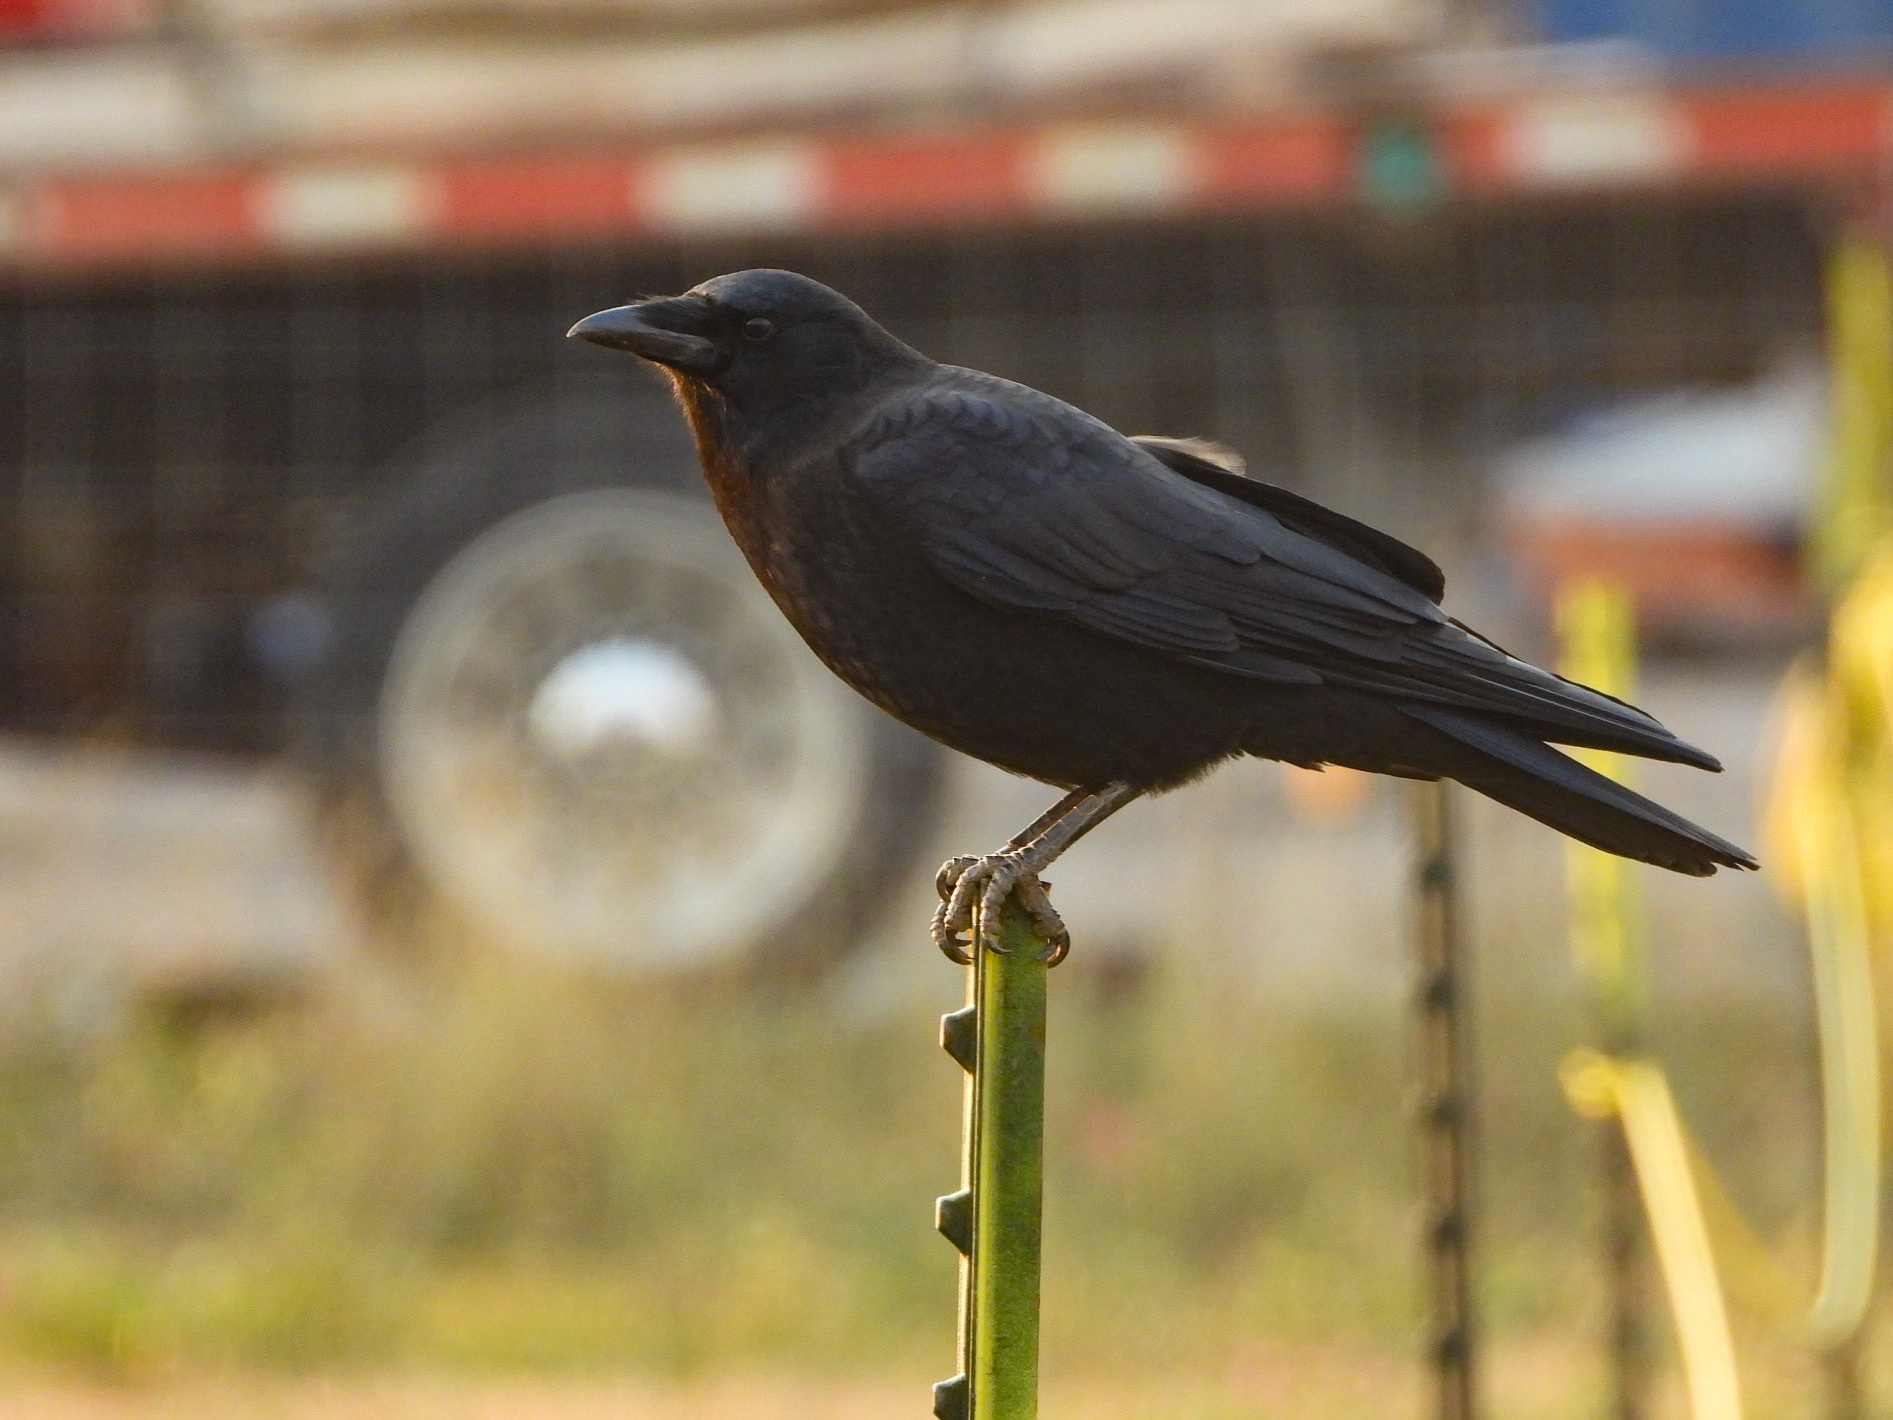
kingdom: Animalia
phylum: Chordata
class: Aves
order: Passeriformes
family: Corvidae
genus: Corvus
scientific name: Corvus brachyrhynchos
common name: American crow
